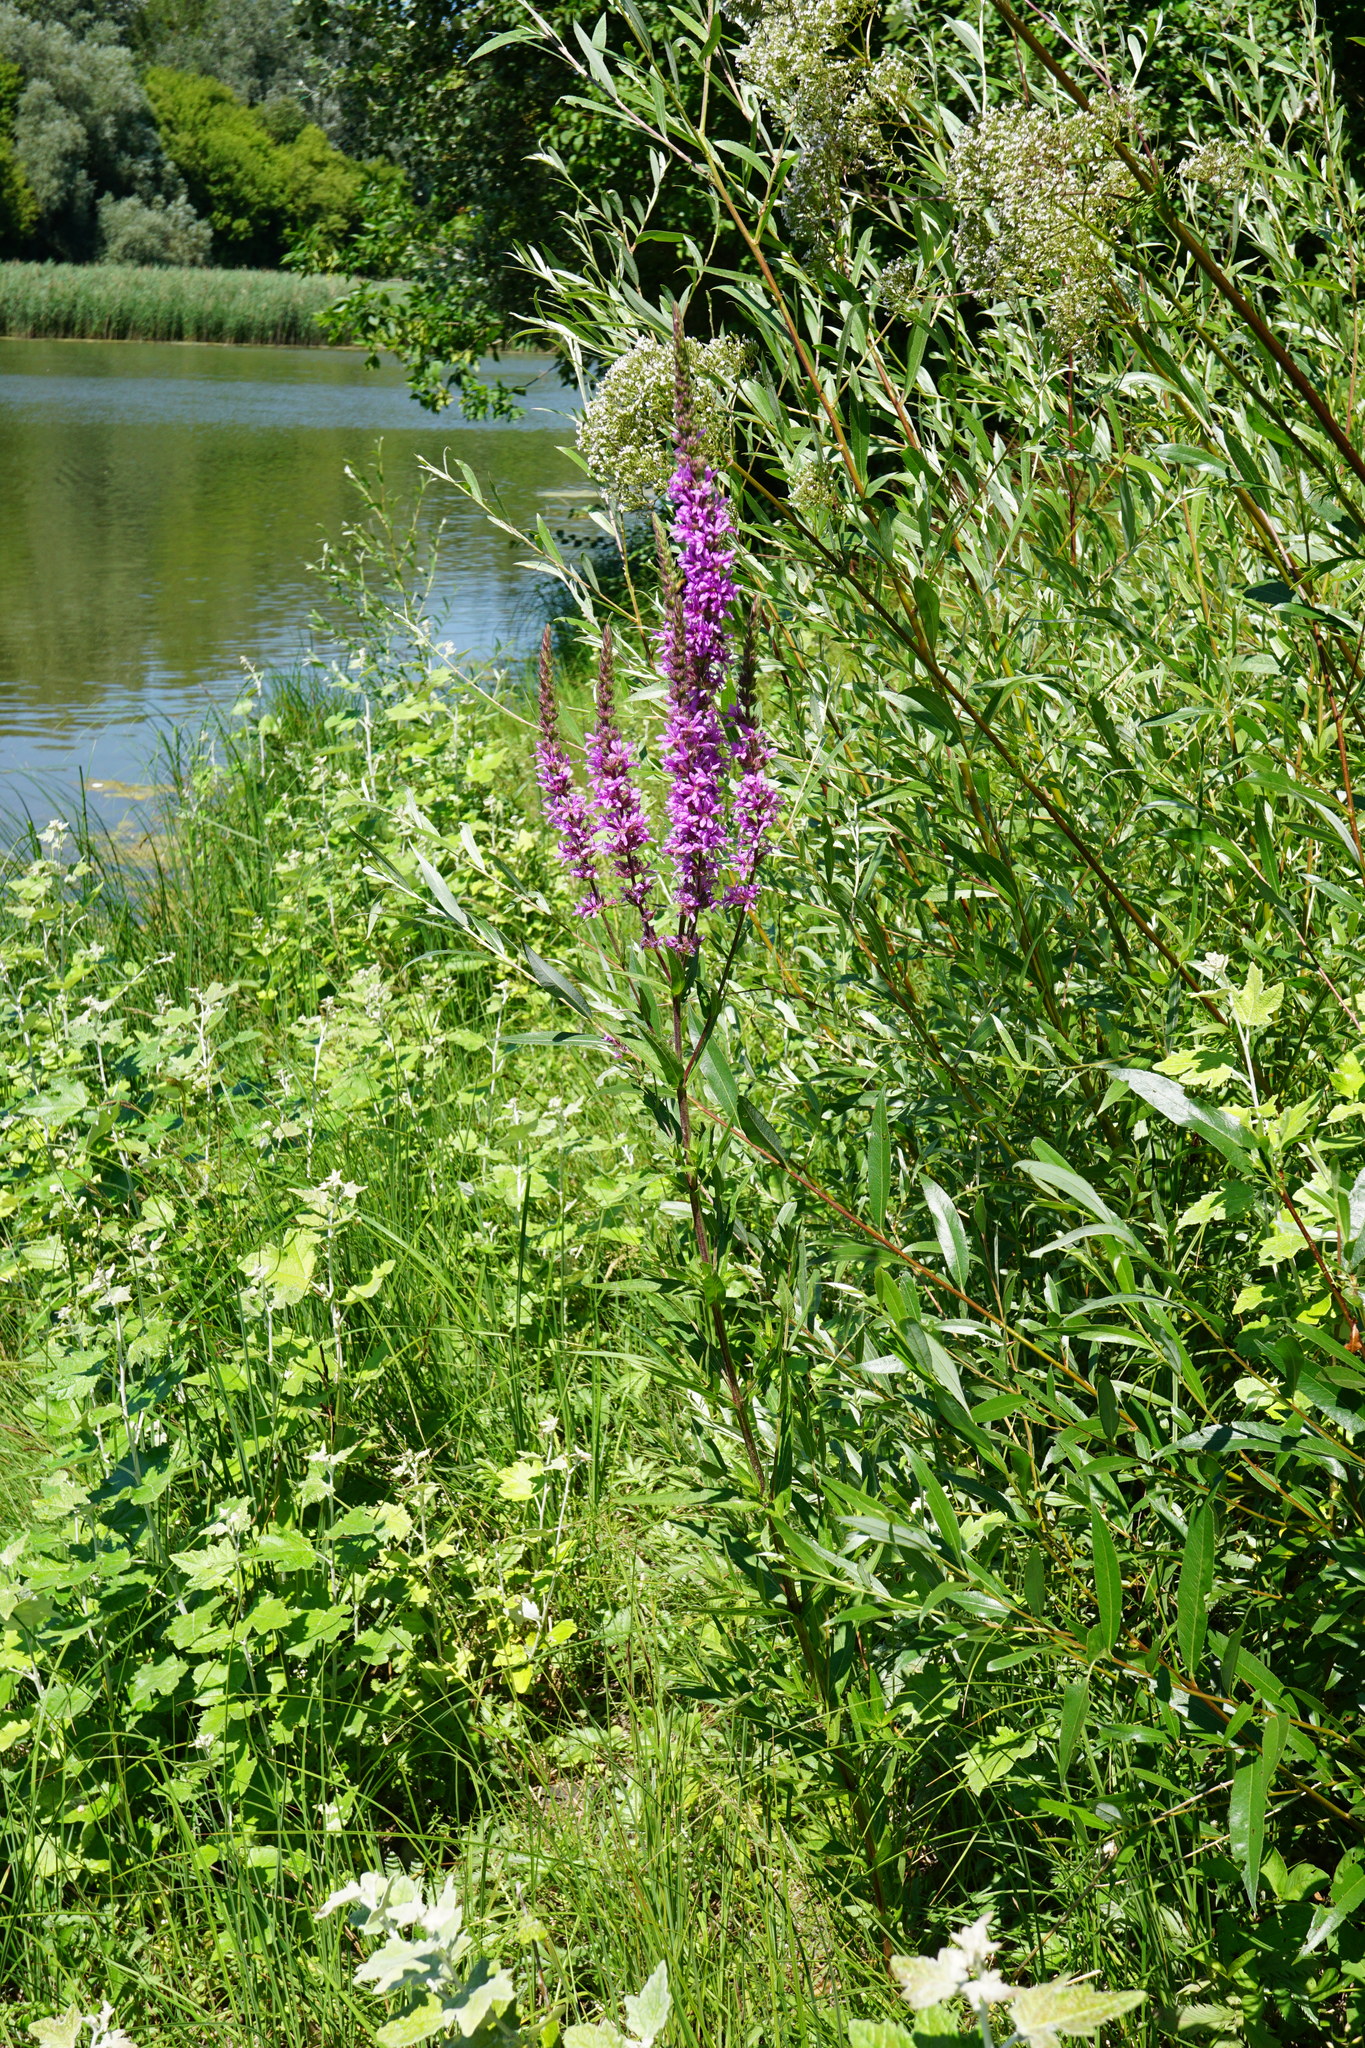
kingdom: Plantae
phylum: Tracheophyta
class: Magnoliopsida
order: Myrtales
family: Lythraceae
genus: Lythrum
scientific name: Lythrum salicaria
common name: Purple loosestrife
